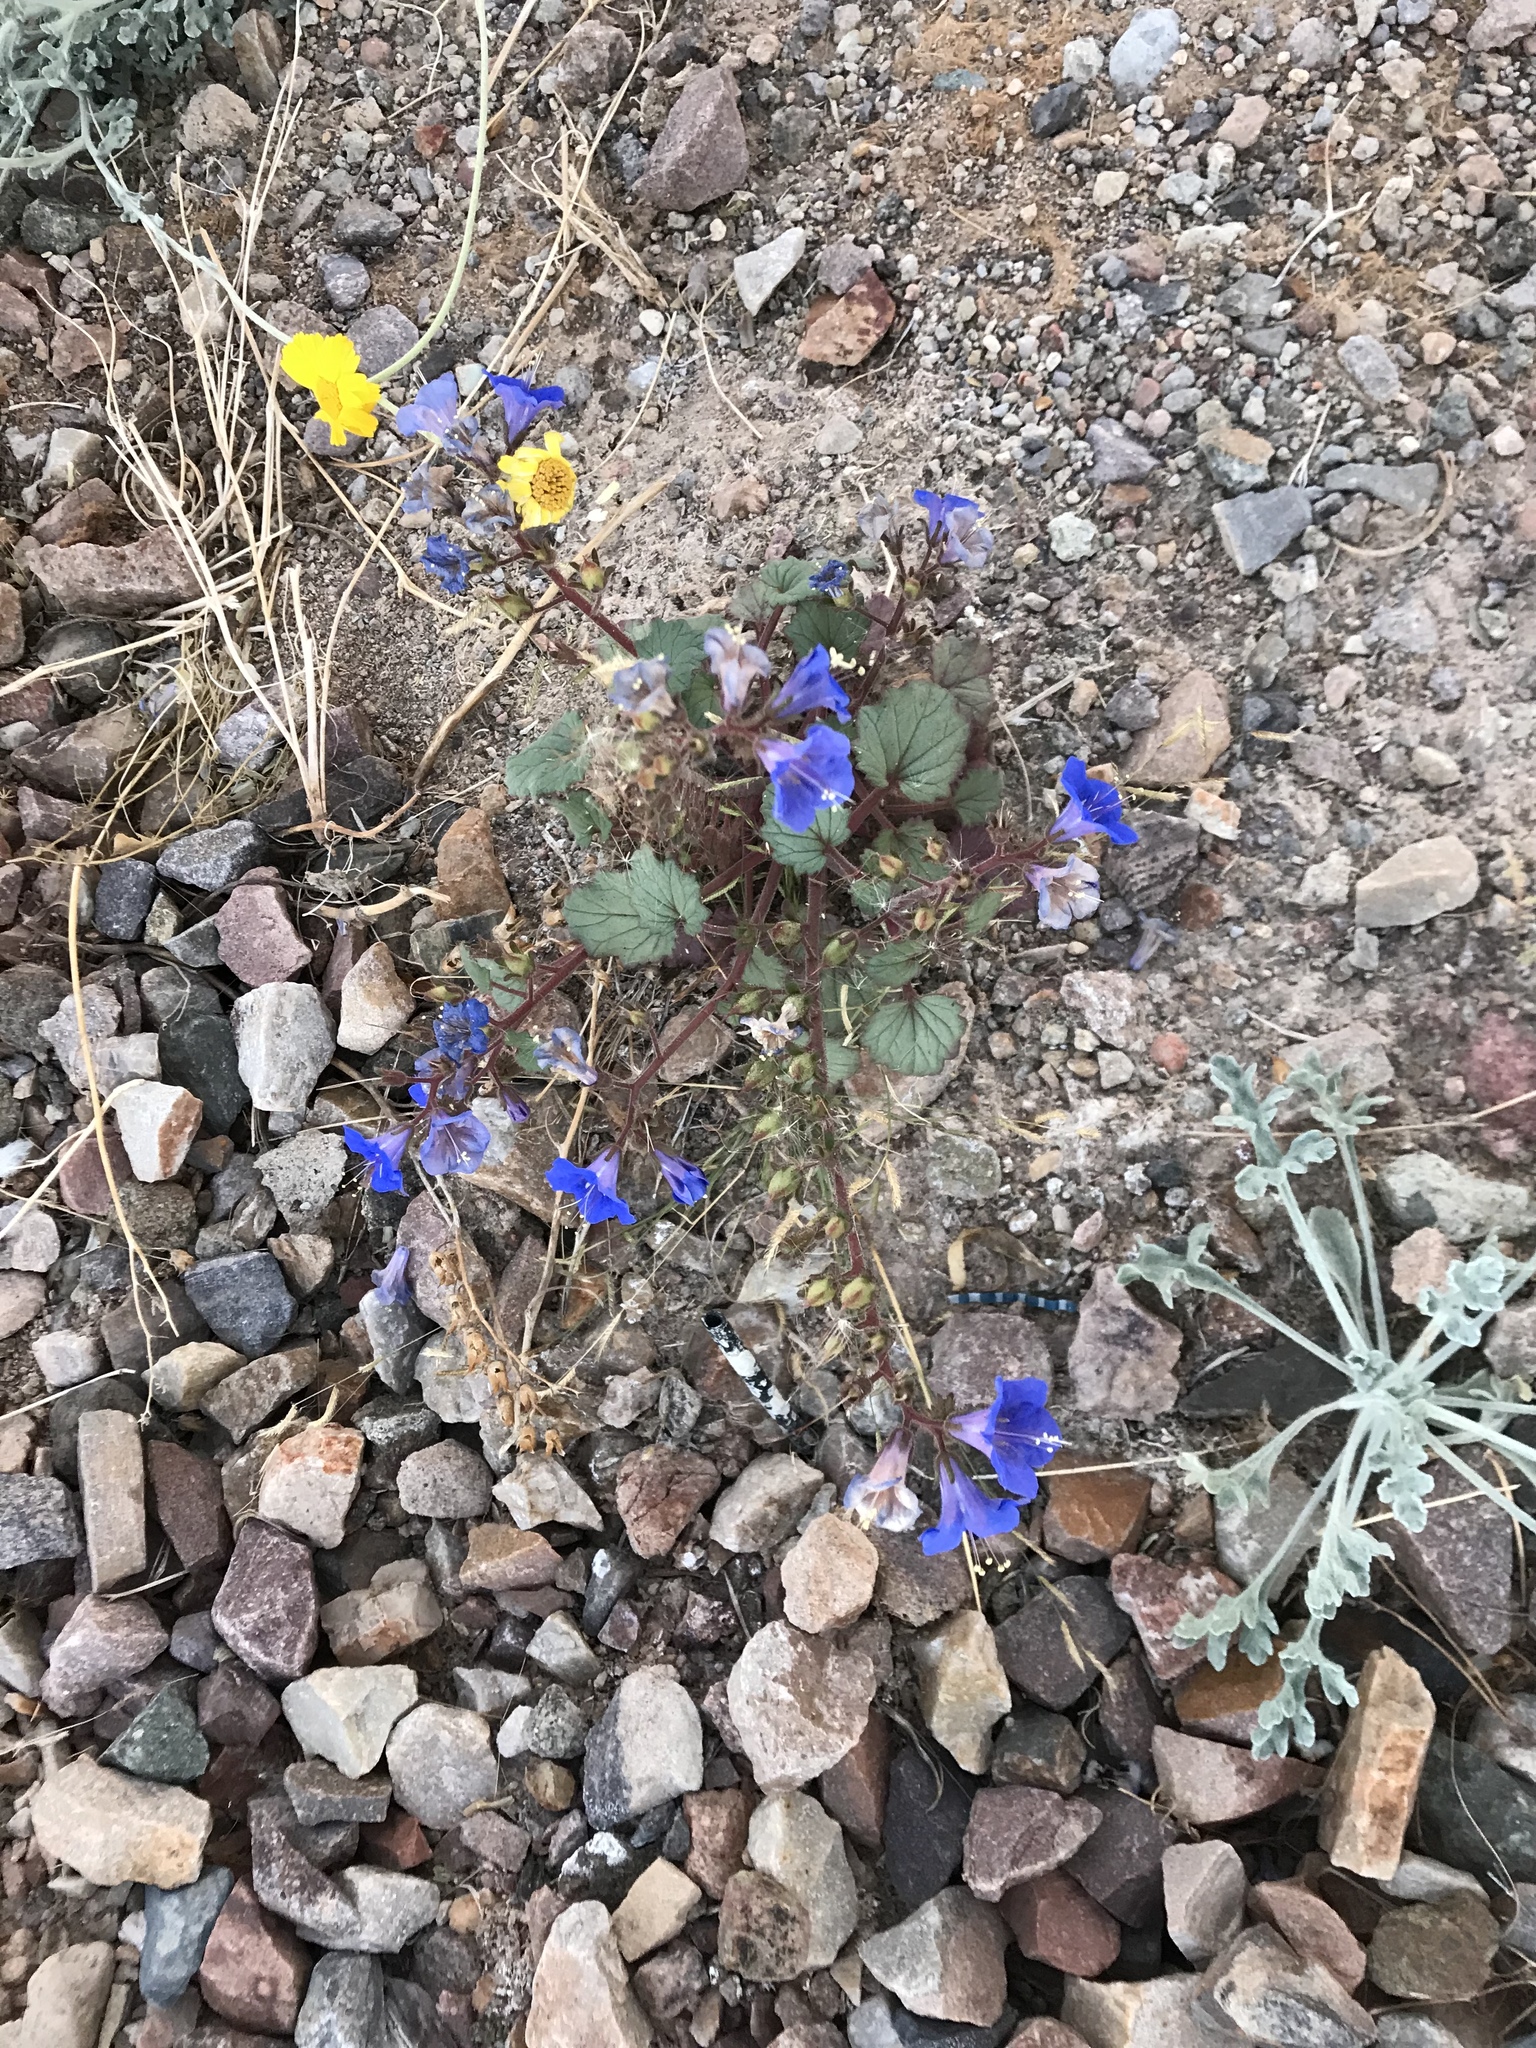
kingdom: Plantae
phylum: Tracheophyta
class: Magnoliopsida
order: Boraginales
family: Hydrophyllaceae
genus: Phacelia
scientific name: Phacelia campanularia
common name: California bluebell
